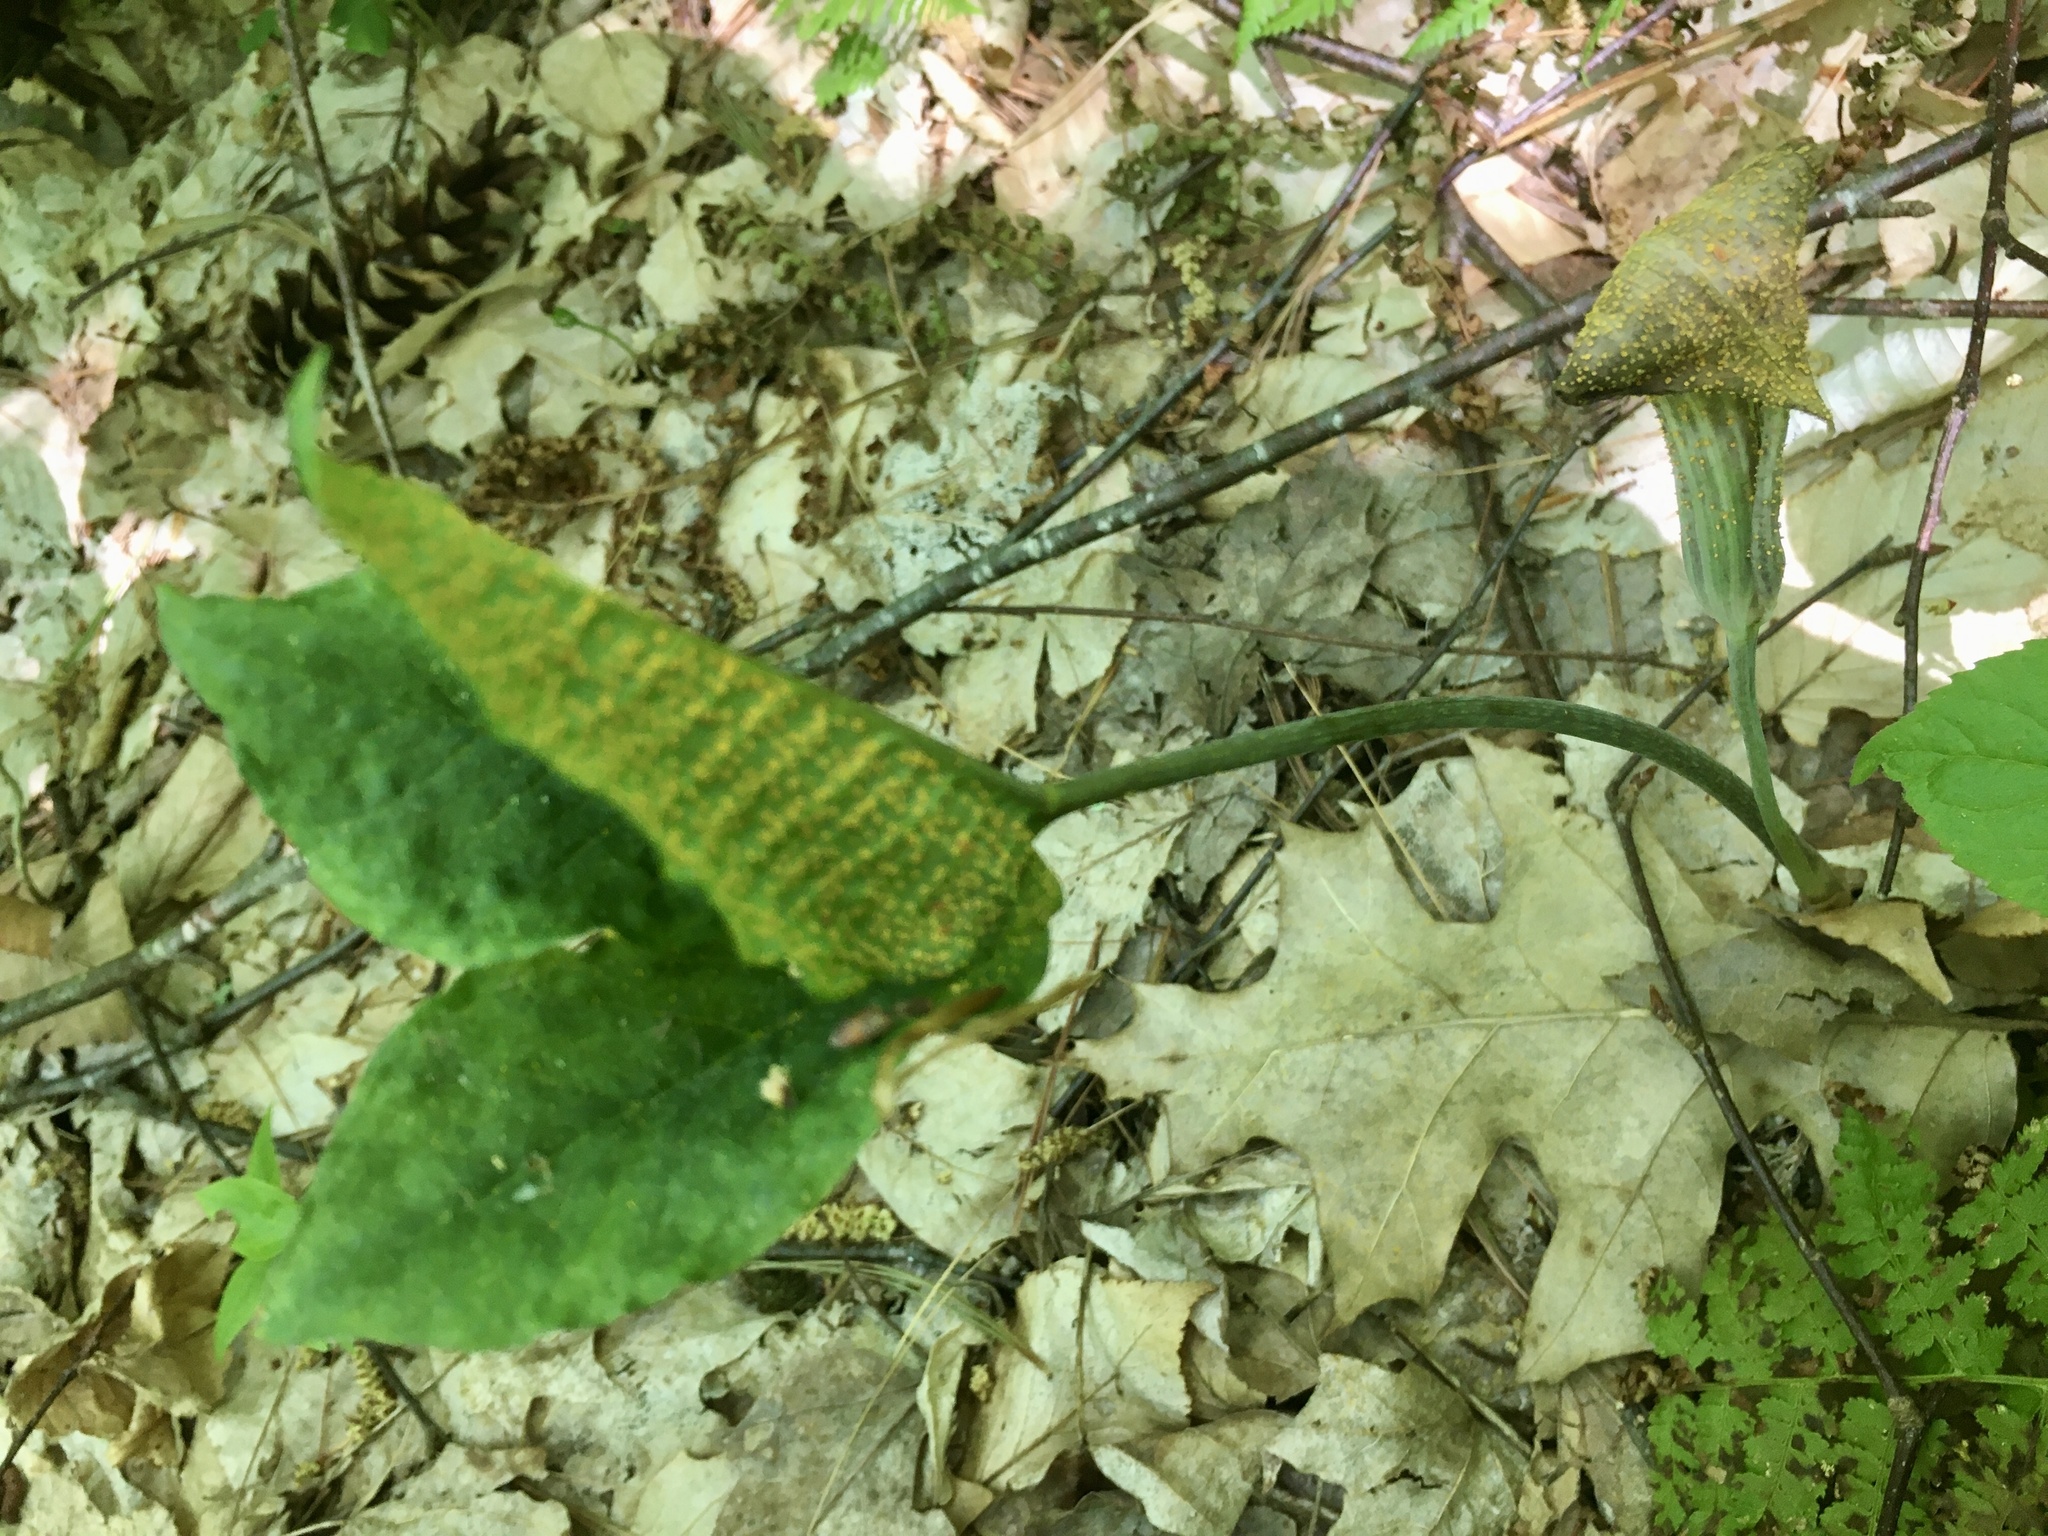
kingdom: Fungi
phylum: Basidiomycota
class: Pucciniomycetes
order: Pucciniales
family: Pucciniaceae
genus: Uromyces
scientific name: Uromyces ari-triphylli
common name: Jack-in-the-pulpit rust
